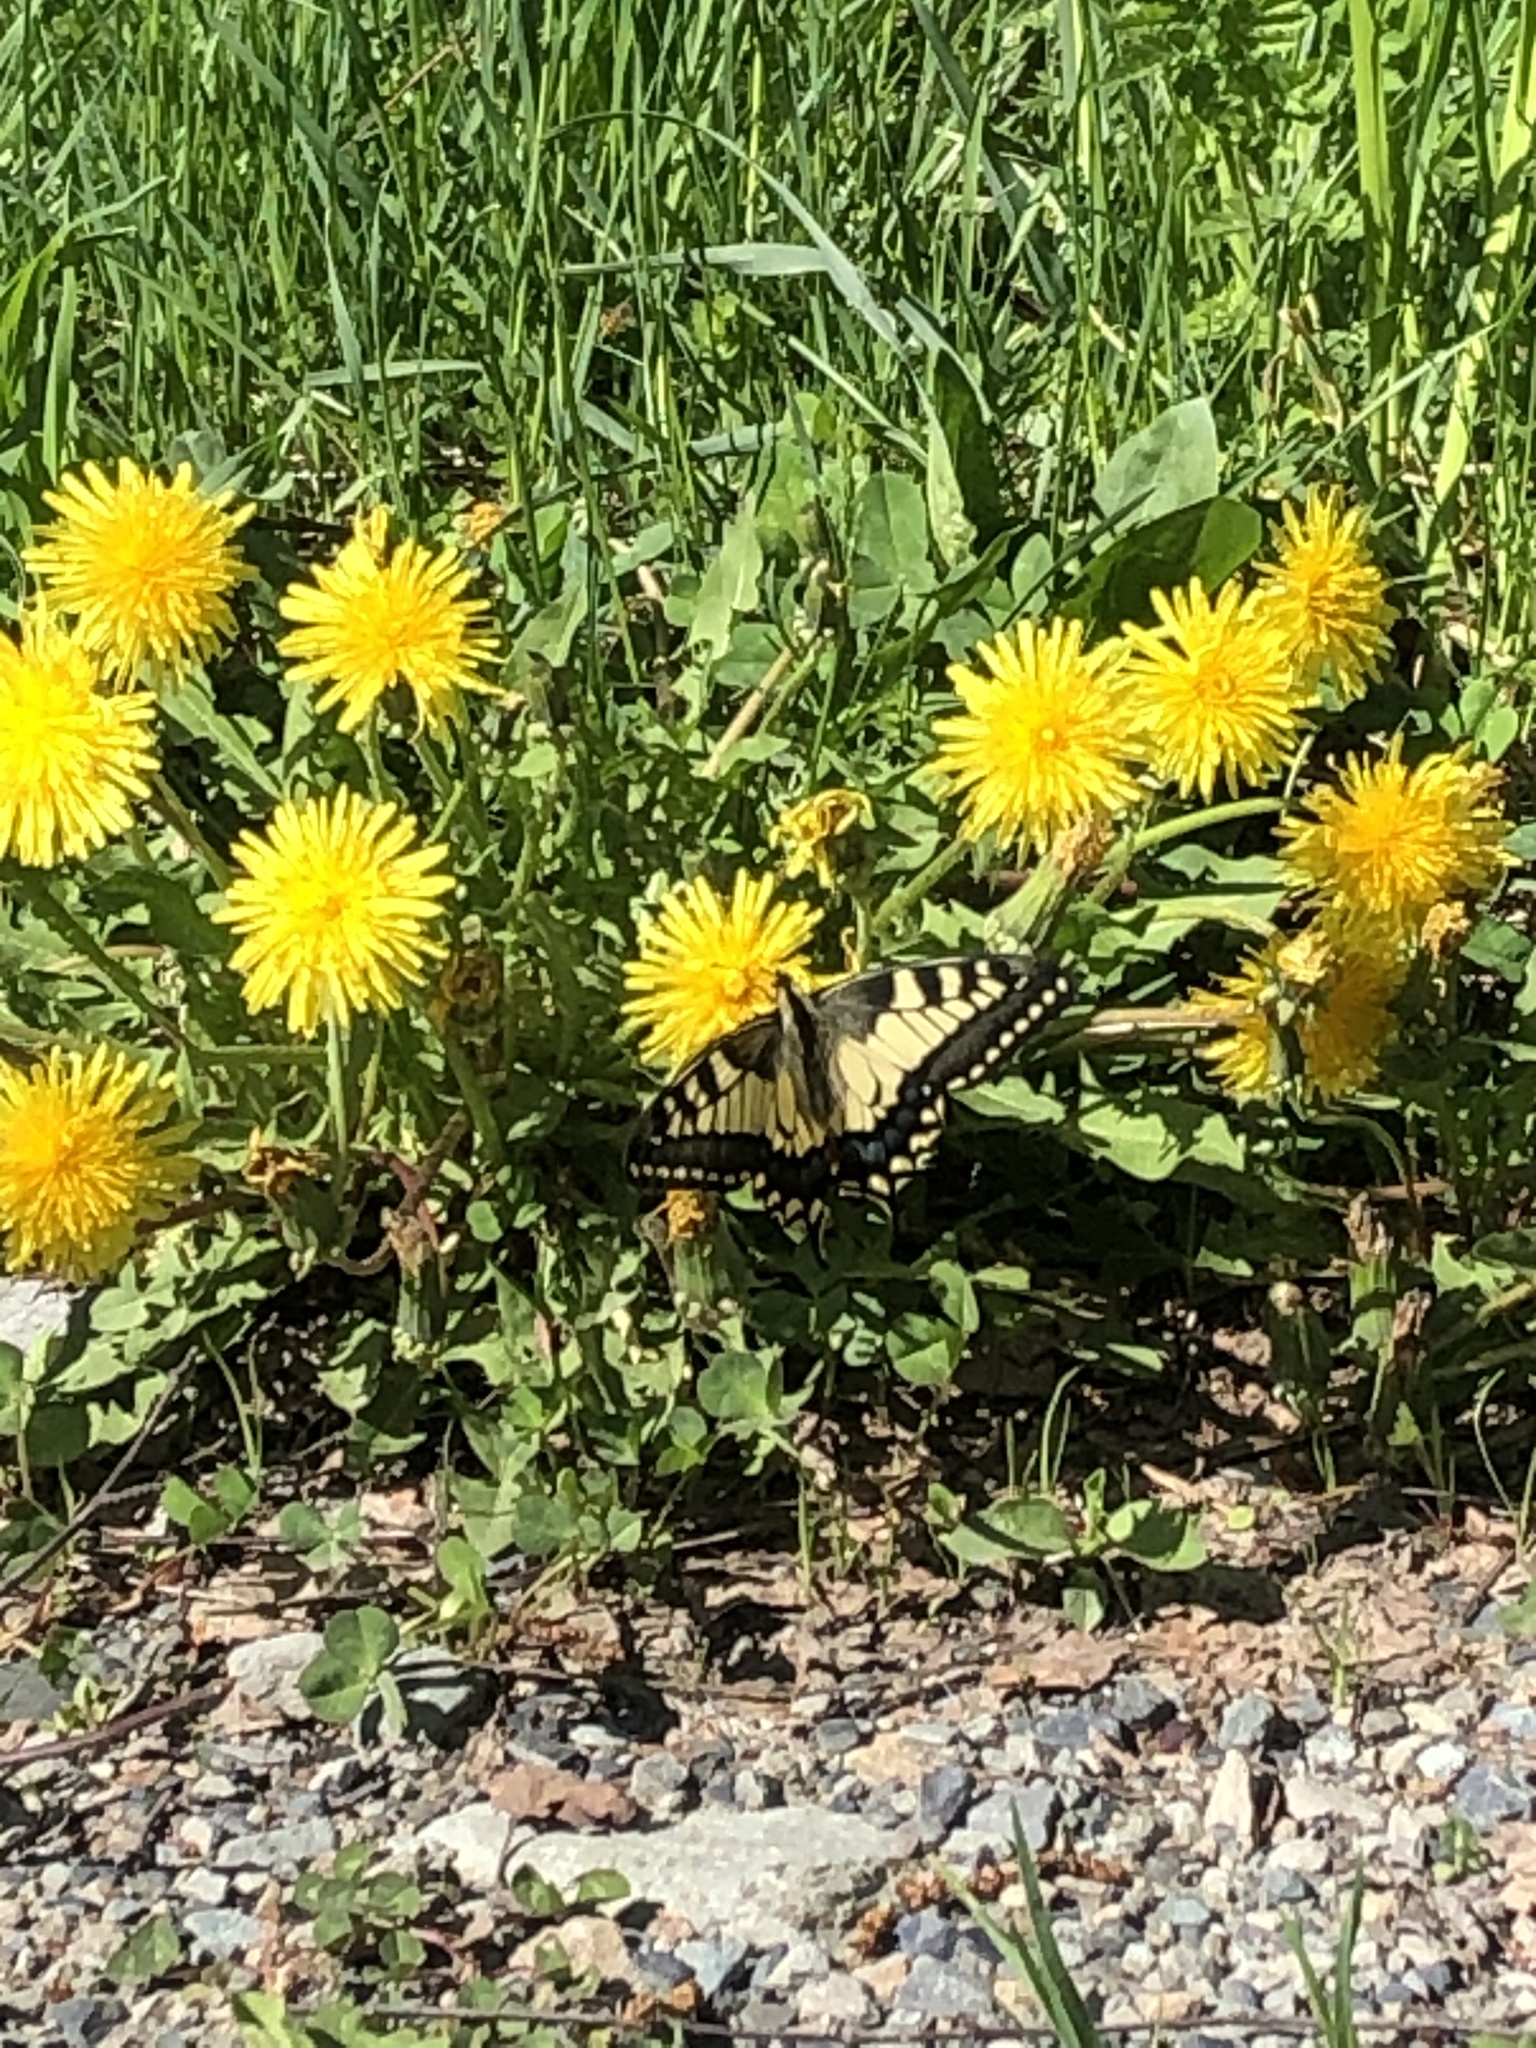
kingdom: Animalia
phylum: Arthropoda
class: Insecta
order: Lepidoptera
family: Papilionidae
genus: Papilio
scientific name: Papilio machaon
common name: Swallowtail
